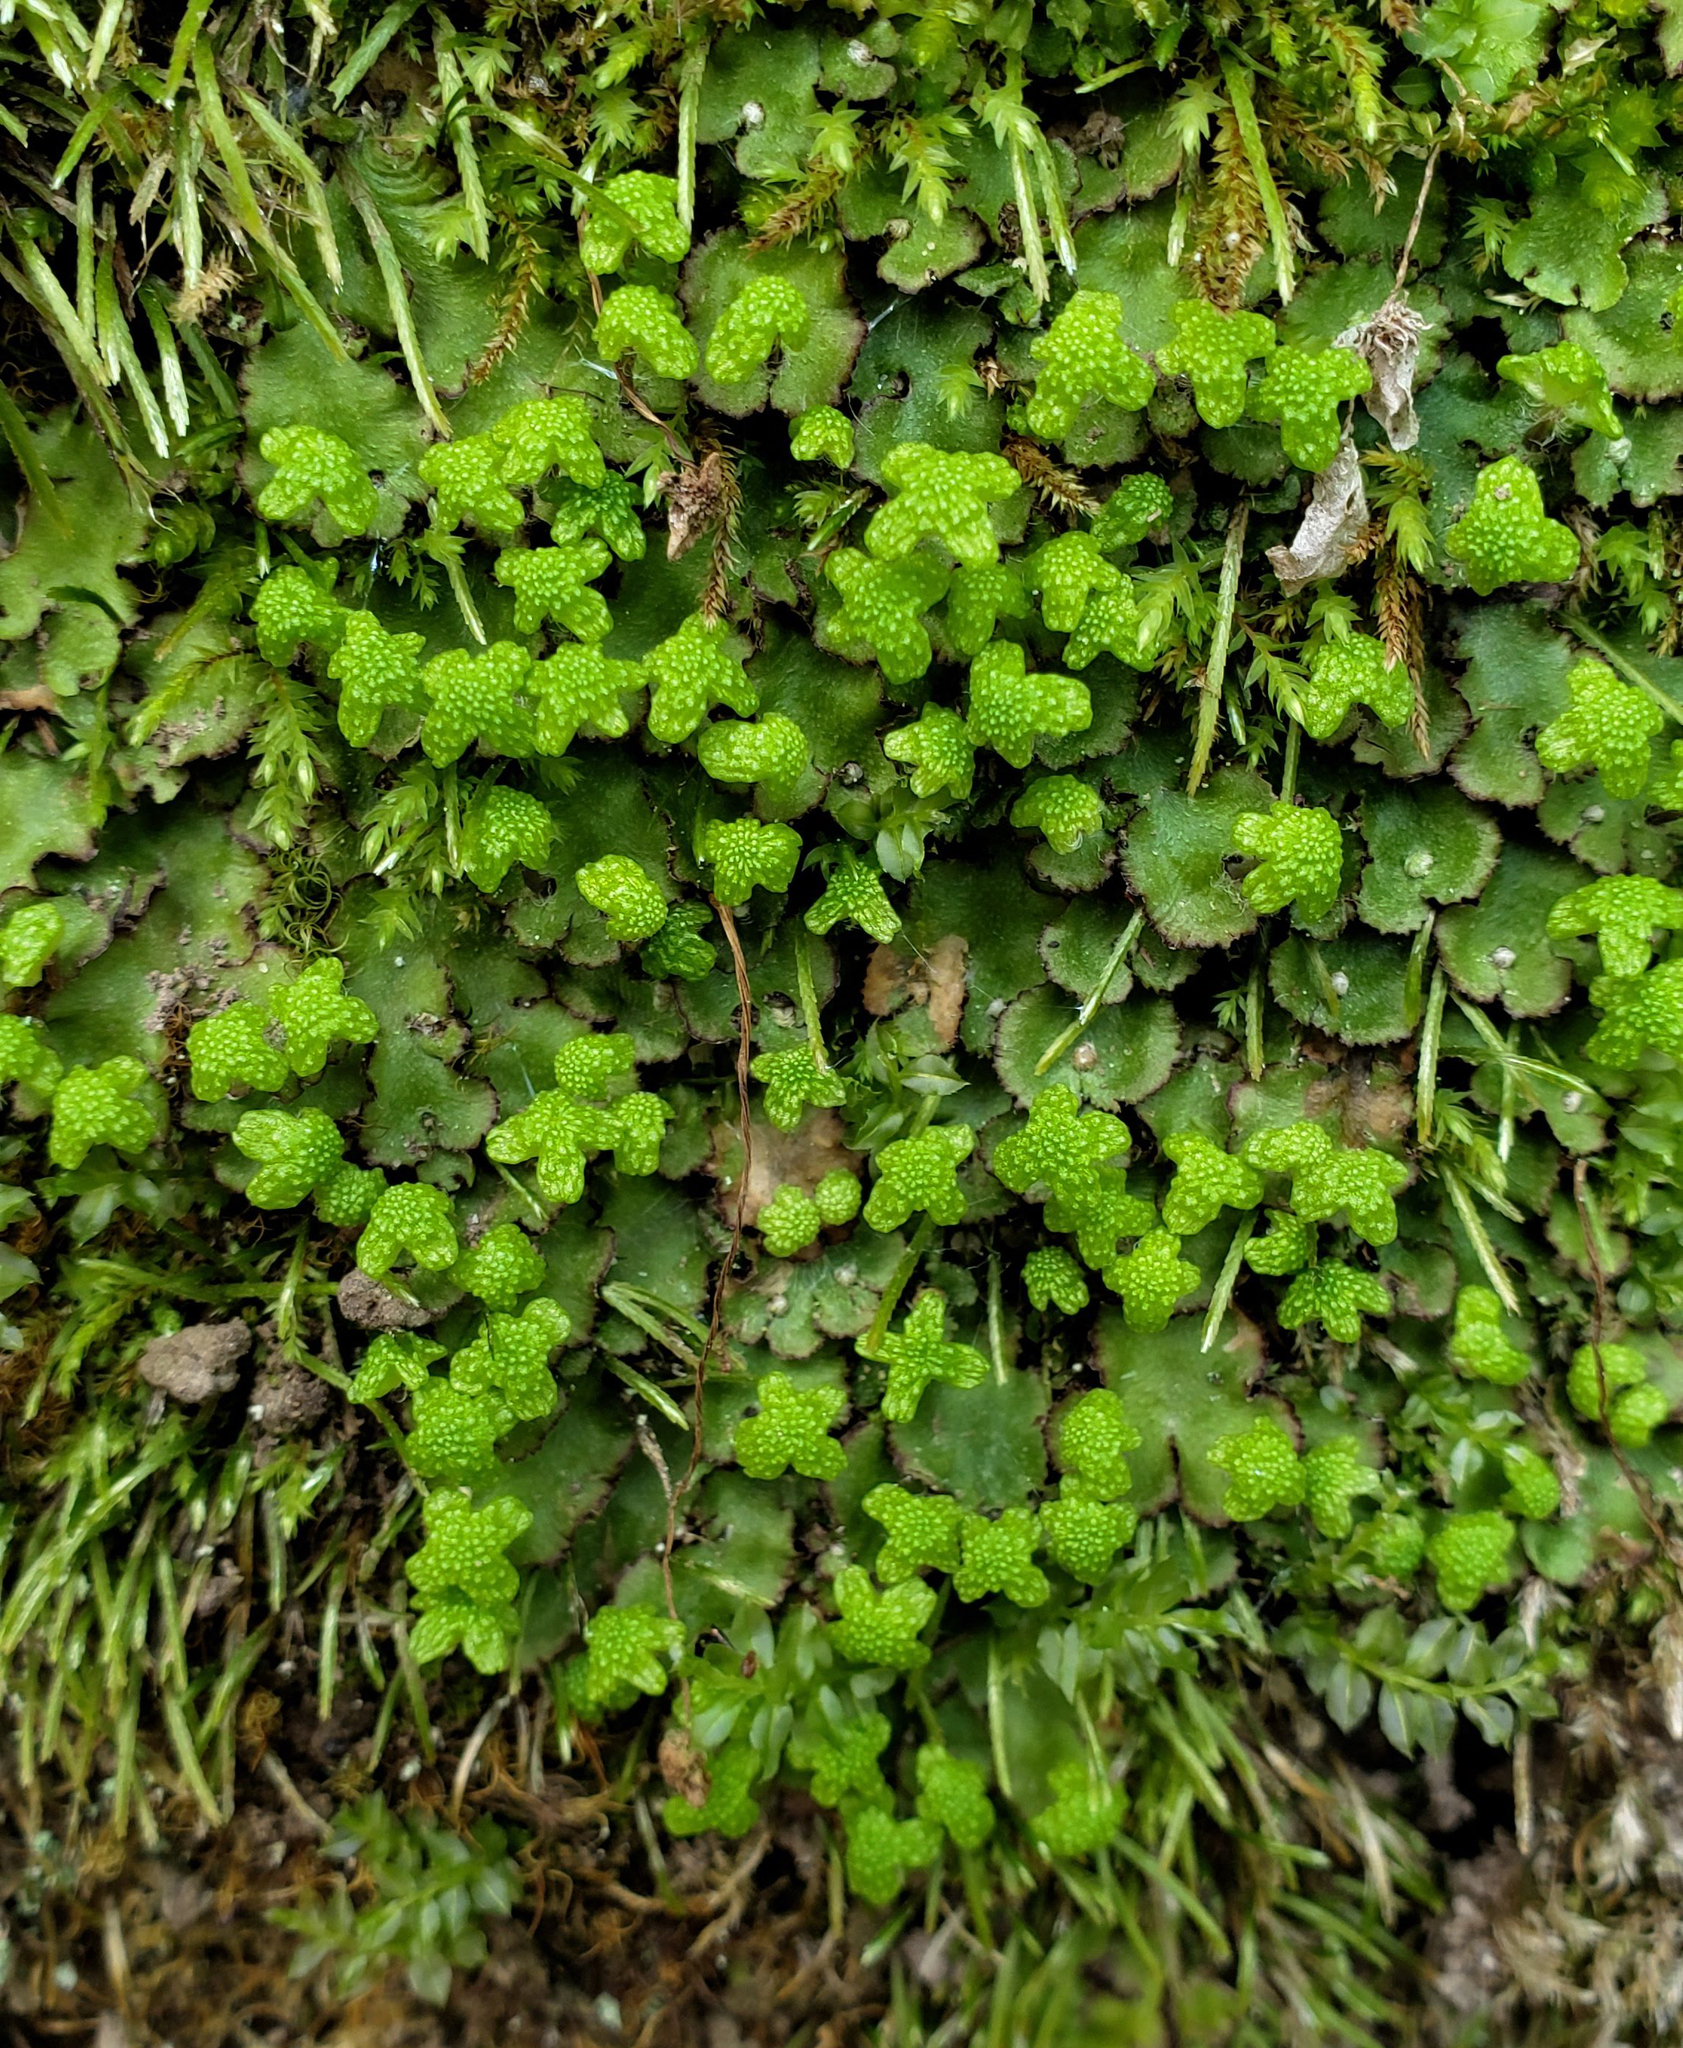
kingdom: Plantae
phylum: Marchantiophyta
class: Marchantiopsida
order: Marchantiales
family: Aytoniaceae
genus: Reboulia
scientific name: Reboulia hemisphaerica
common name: Purple-margined liverwort
